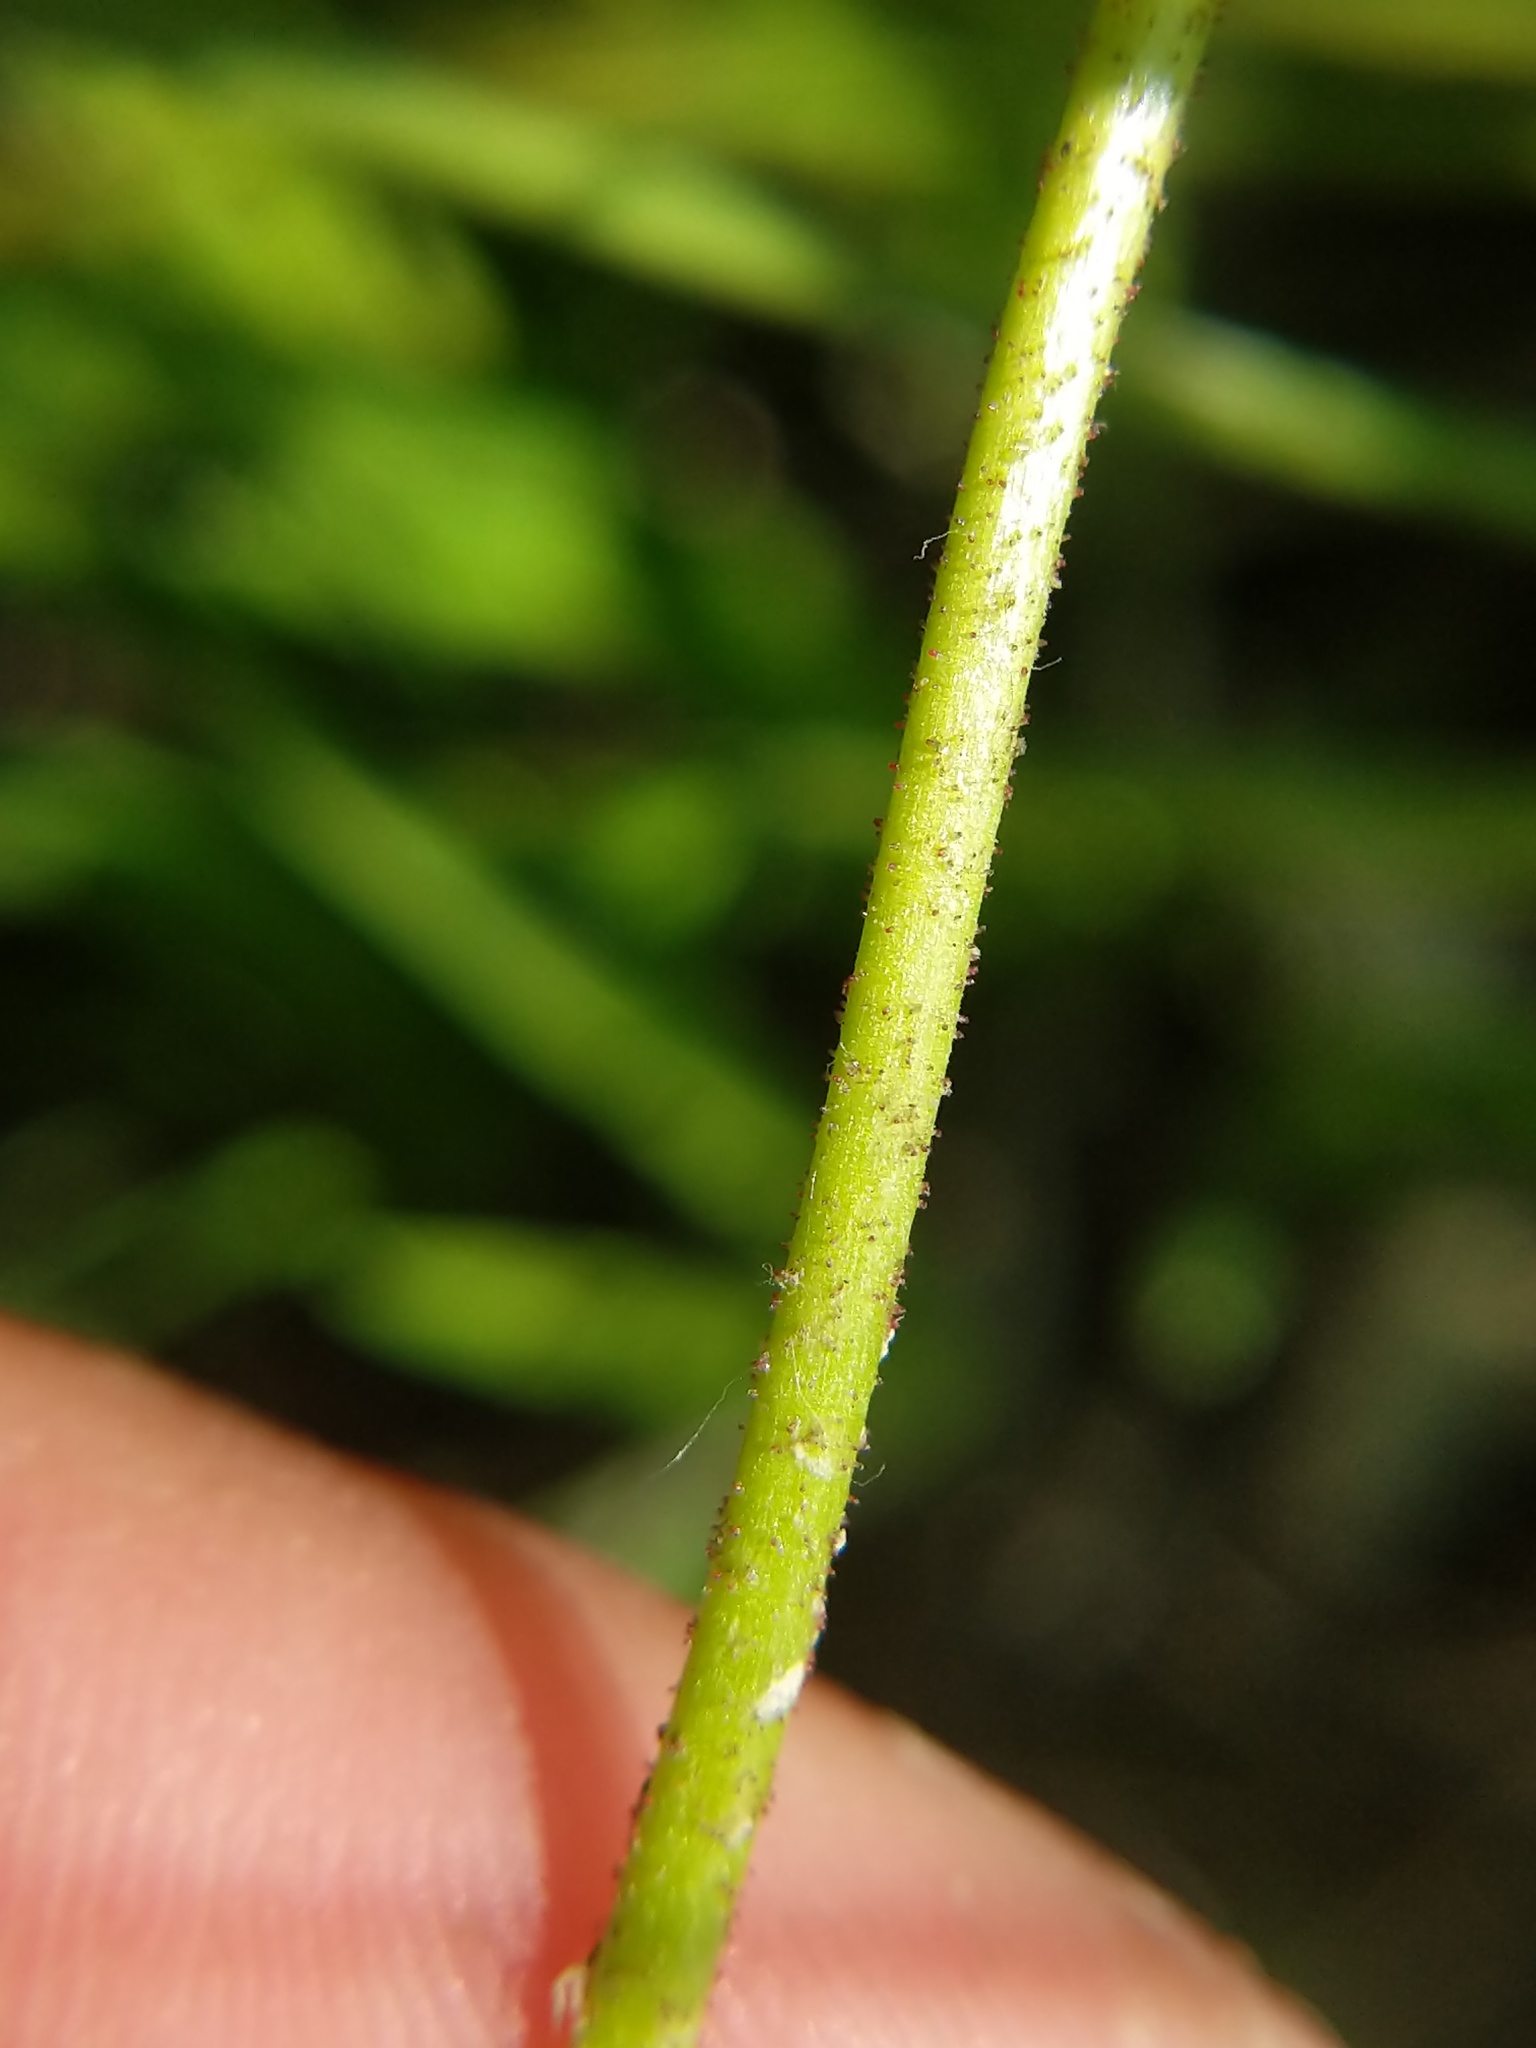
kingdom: Plantae
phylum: Tracheophyta
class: Liliopsida
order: Alismatales
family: Tofieldiaceae
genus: Triantha
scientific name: Triantha glutinosa
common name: Glutinous tofieldia
